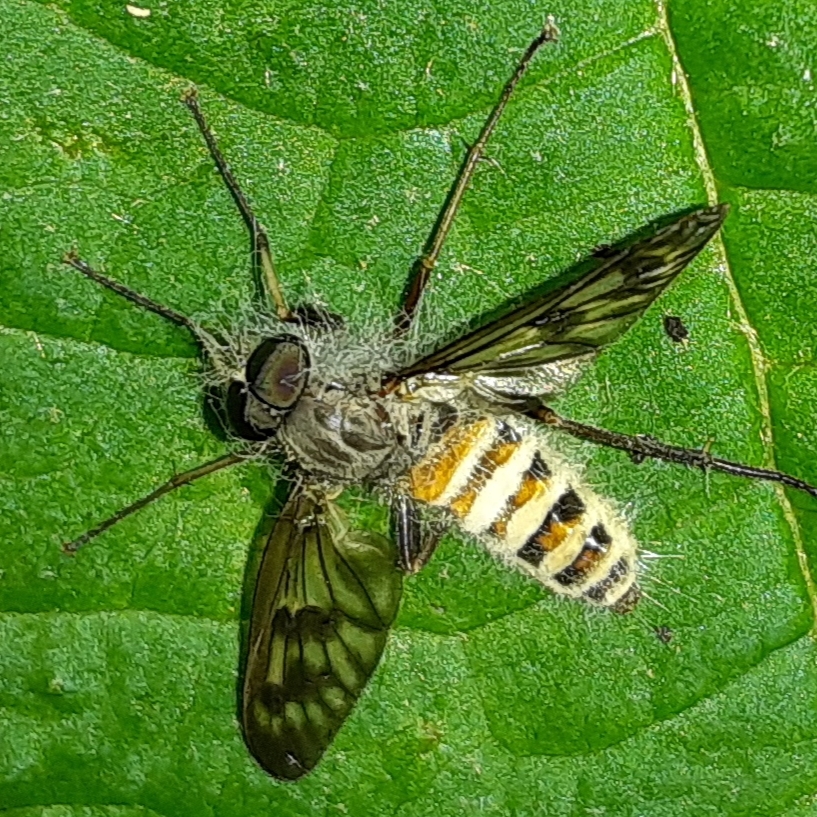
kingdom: Animalia
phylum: Arthropoda
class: Insecta
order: Diptera
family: Rhagionidae
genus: Rhagio
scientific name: Rhagio mystaceus
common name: Common snipe fly
